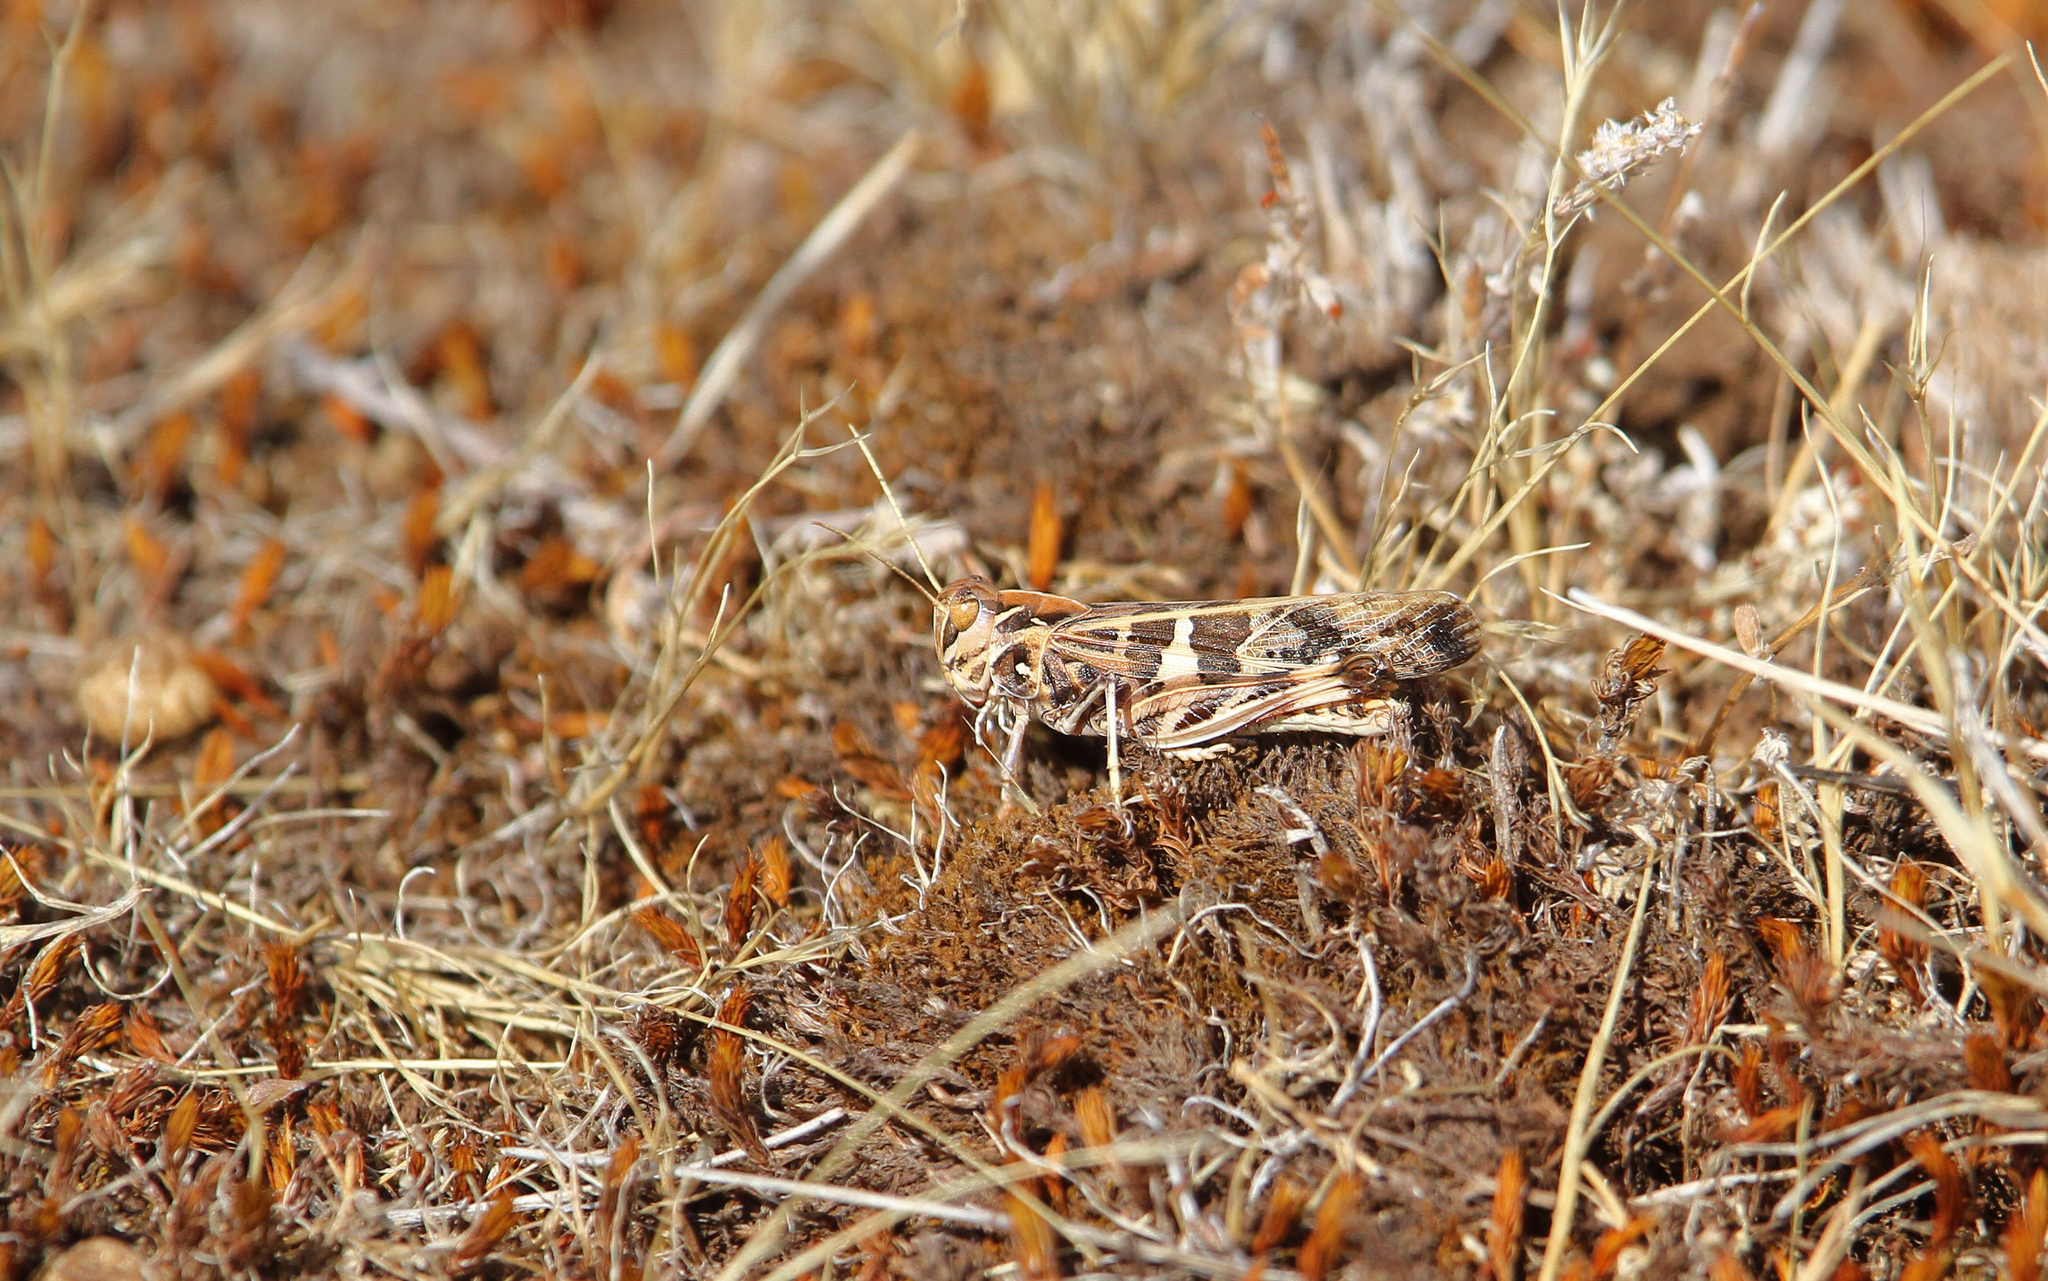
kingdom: Animalia
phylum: Arthropoda
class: Insecta
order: Orthoptera
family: Acrididae
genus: Oedaleus
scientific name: Oedaleus decorus
